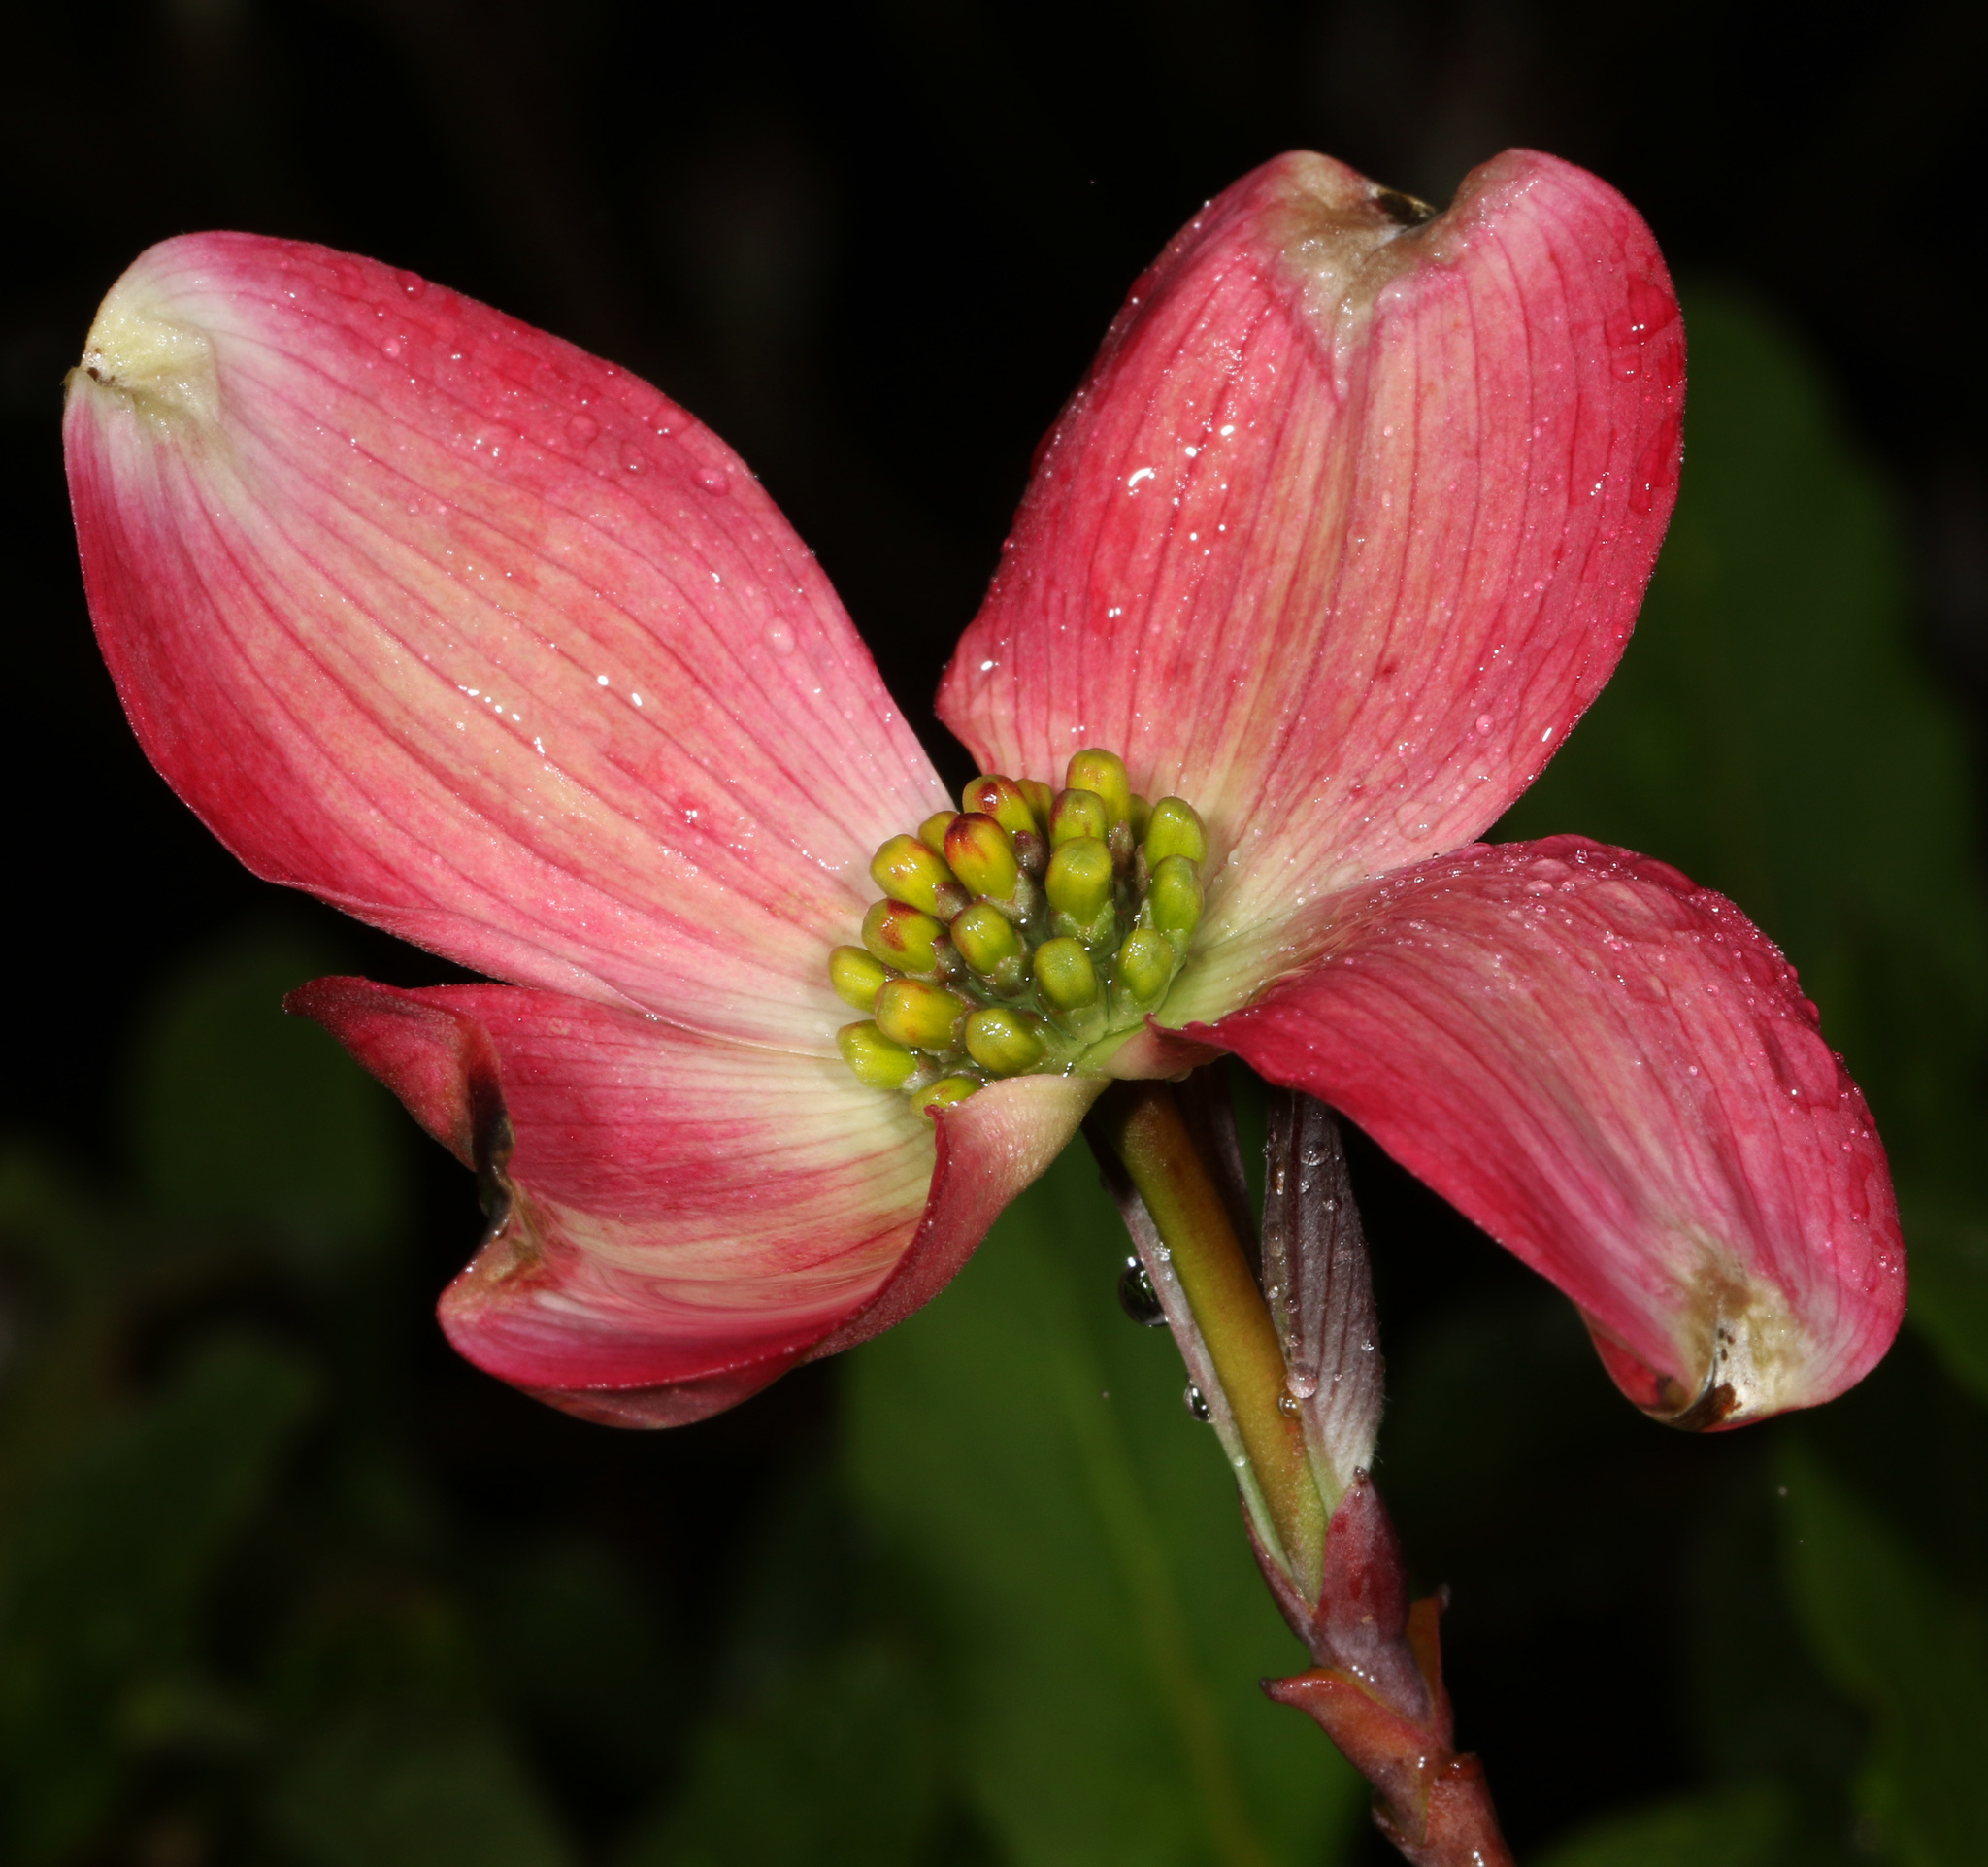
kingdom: Plantae
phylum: Tracheophyta
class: Magnoliopsida
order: Cornales
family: Cornaceae
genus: Cornus
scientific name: Cornus florida
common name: Flowering dogwood
